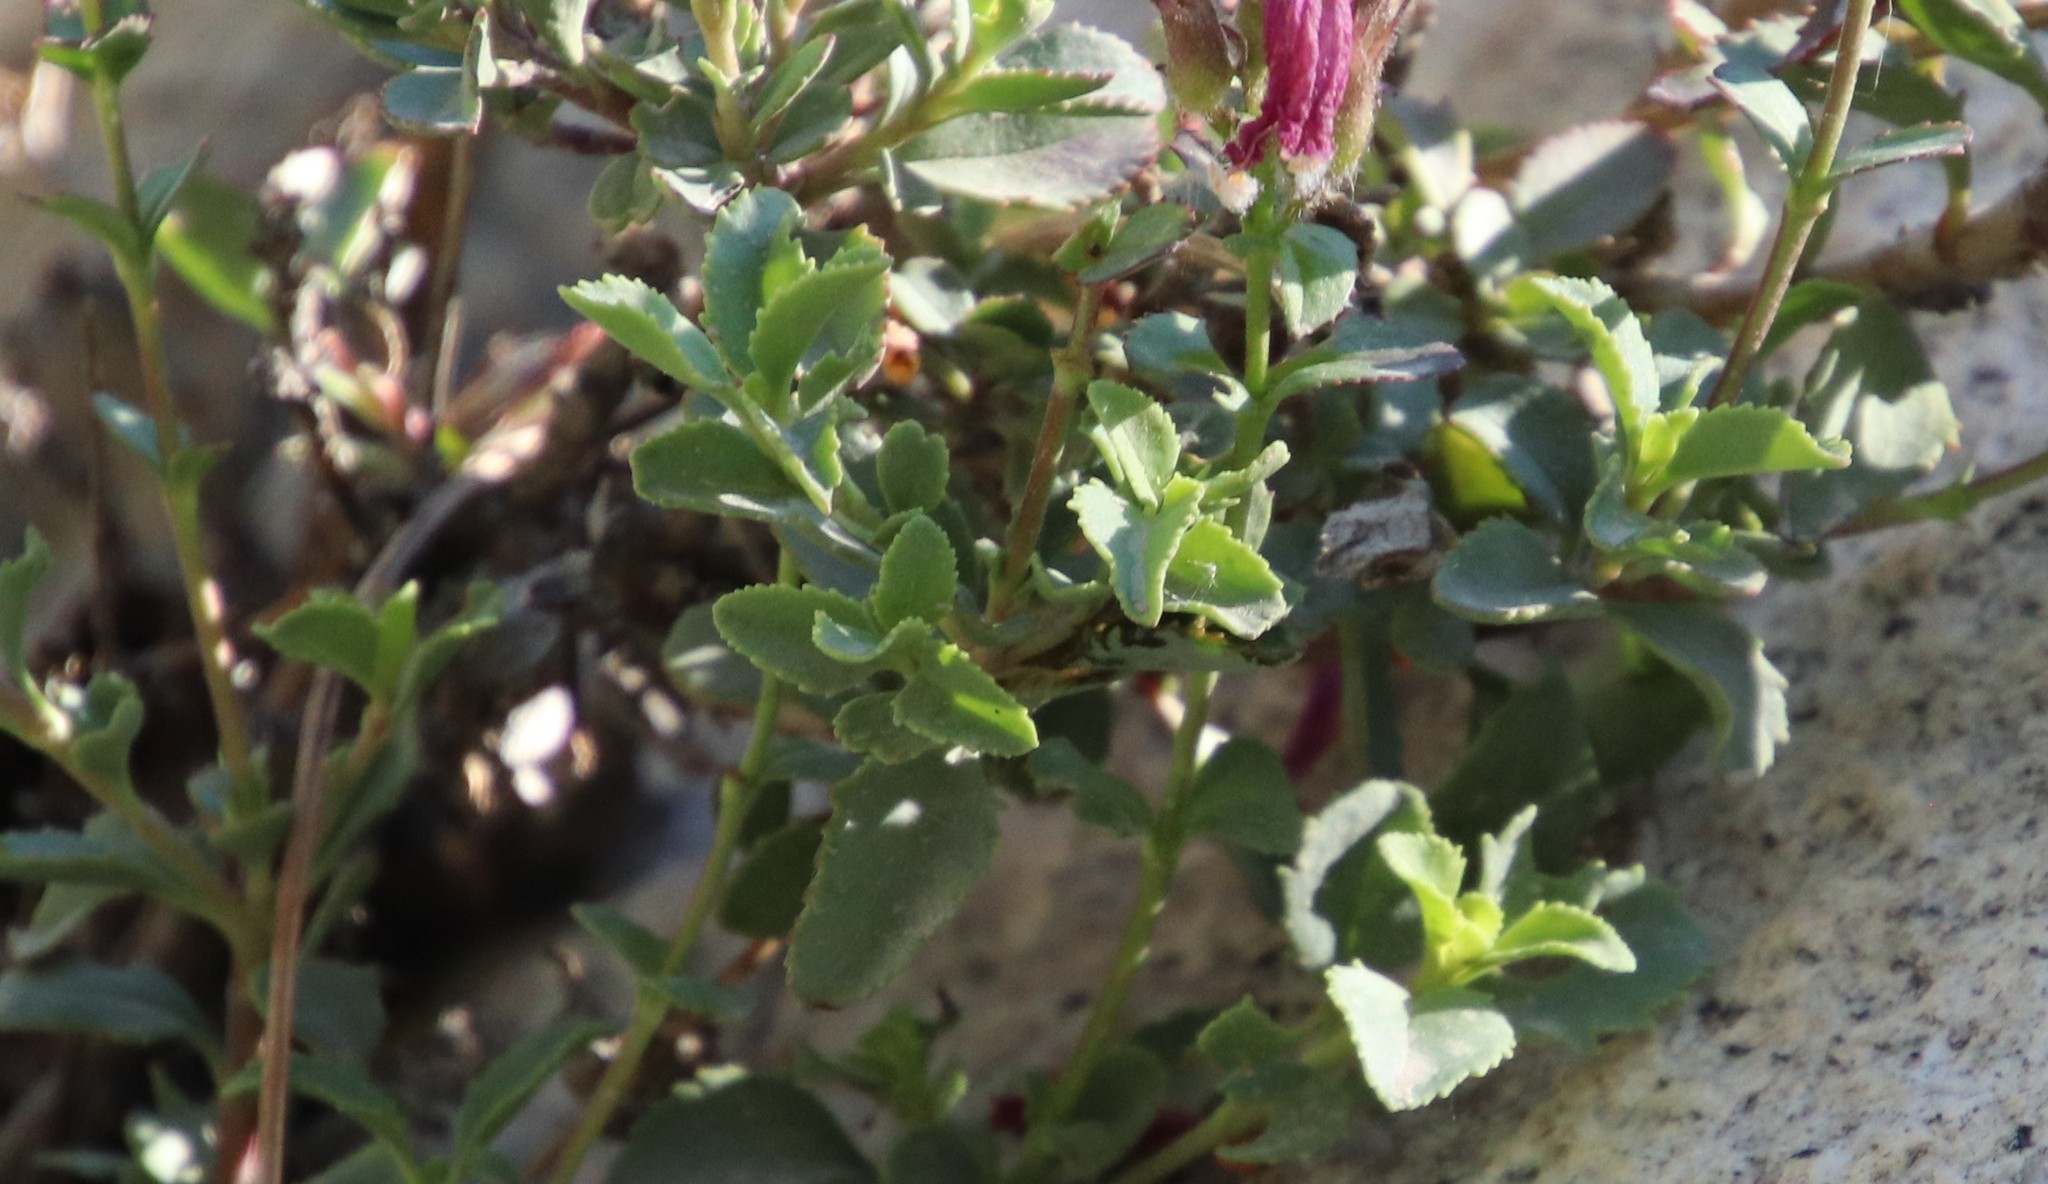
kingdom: Plantae
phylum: Tracheophyta
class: Magnoliopsida
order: Lamiales
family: Plantaginaceae
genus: Penstemon
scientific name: Penstemon newberryi
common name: Mountain-pride
